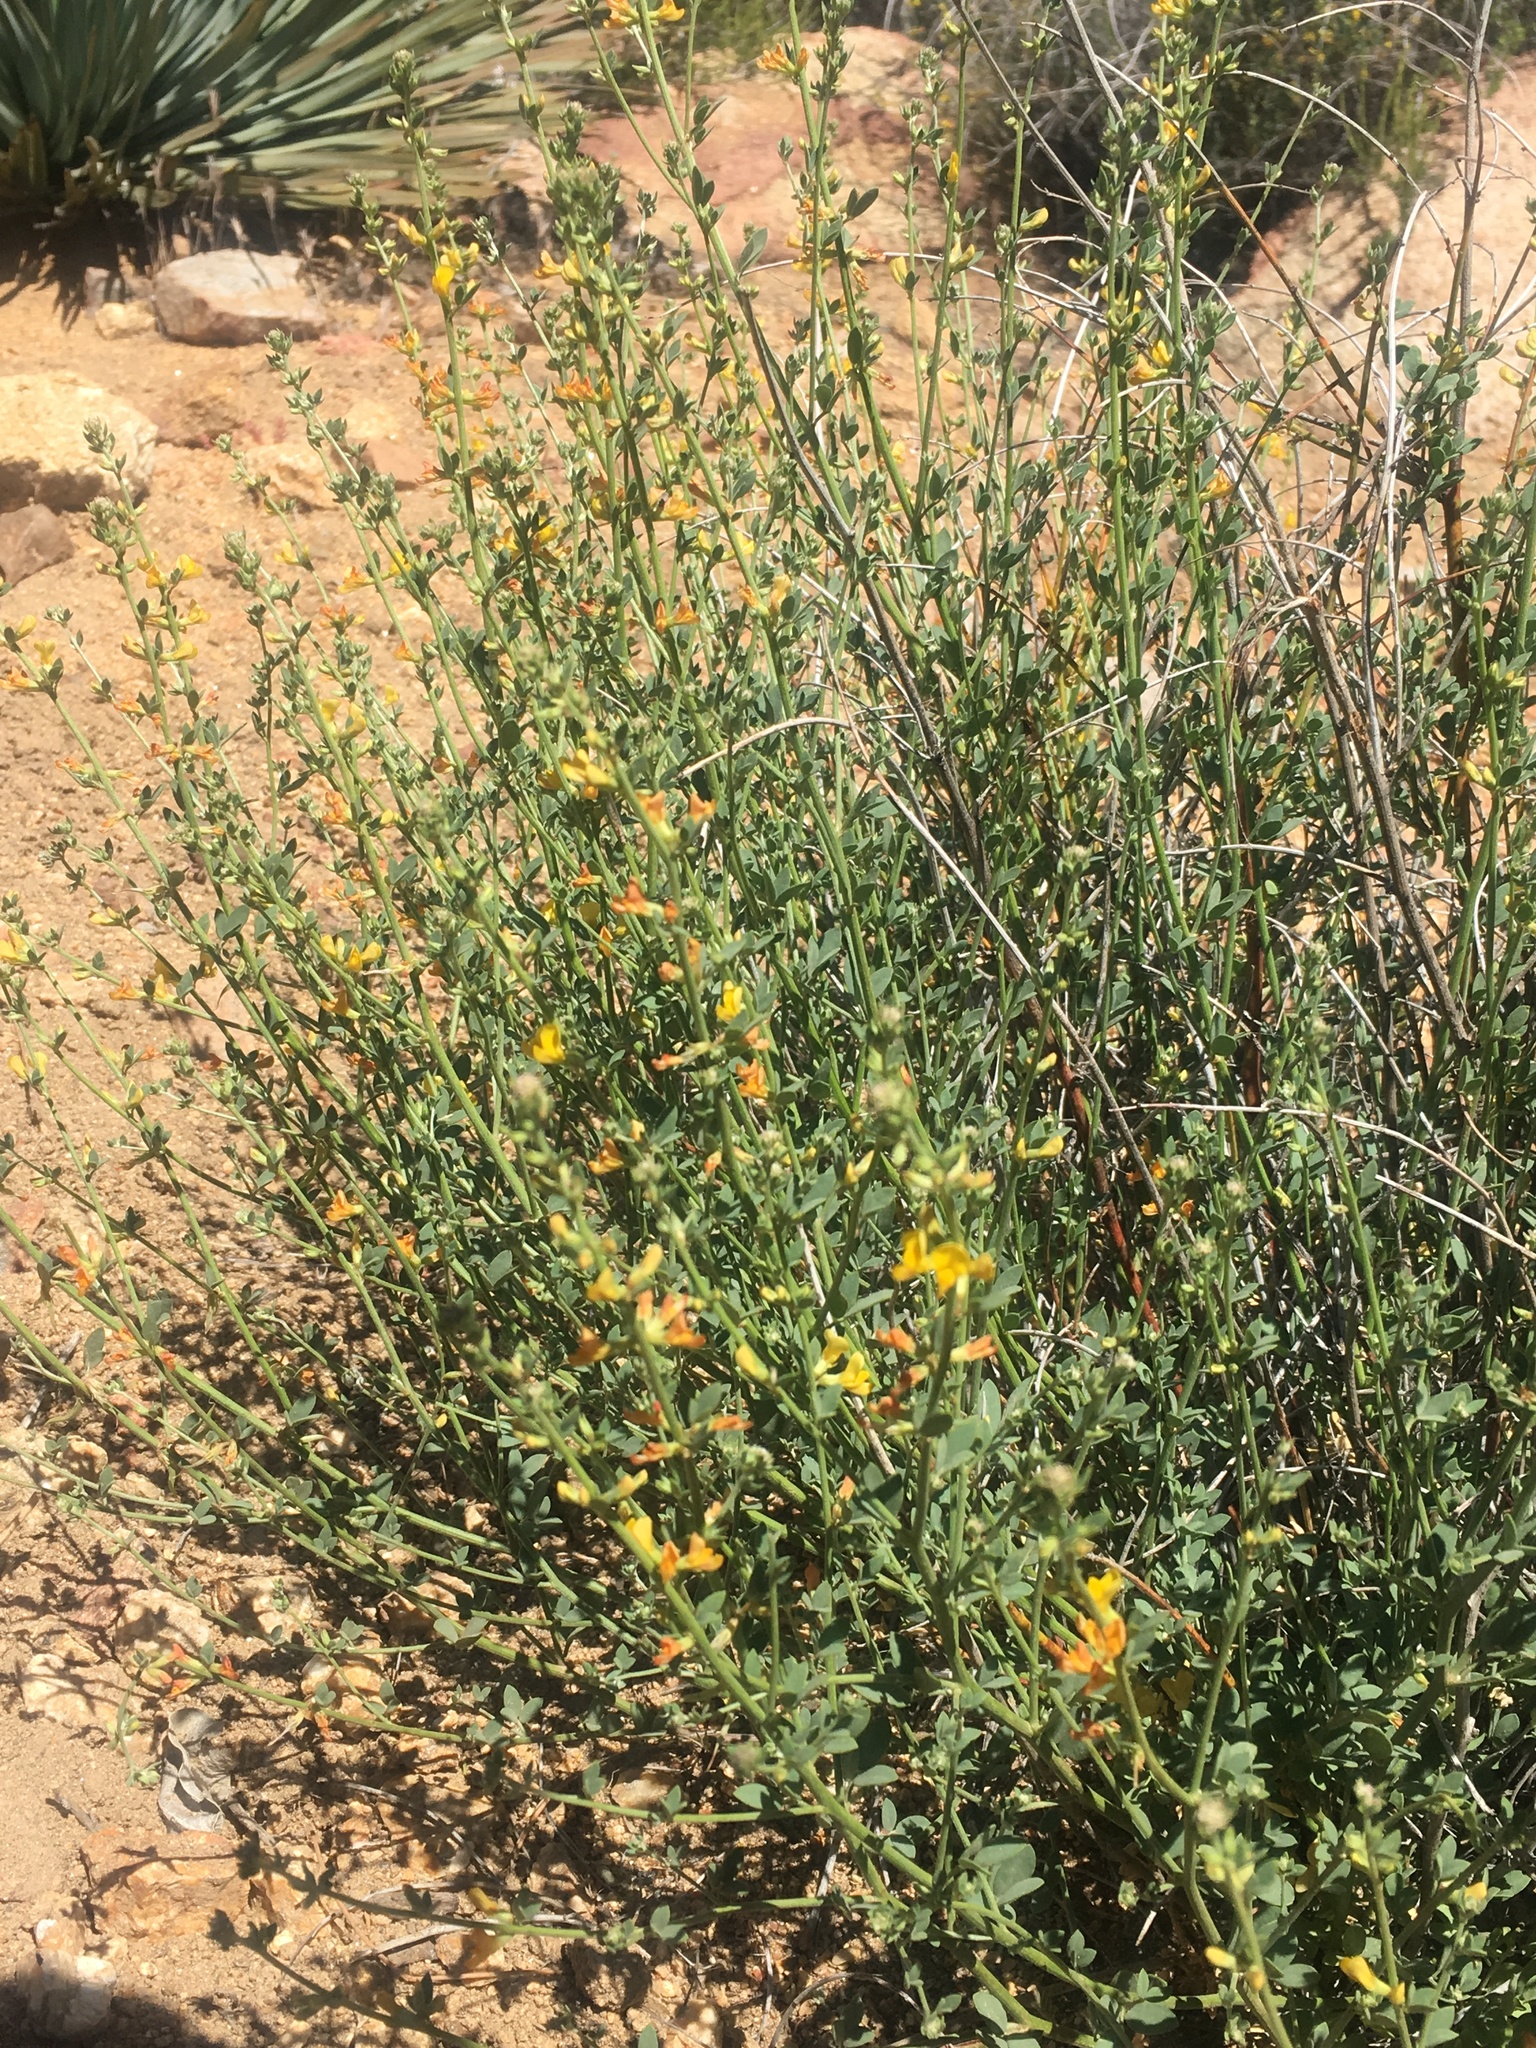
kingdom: Plantae
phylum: Tracheophyta
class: Magnoliopsida
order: Fabales
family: Fabaceae
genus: Acmispon
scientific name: Acmispon glaber
